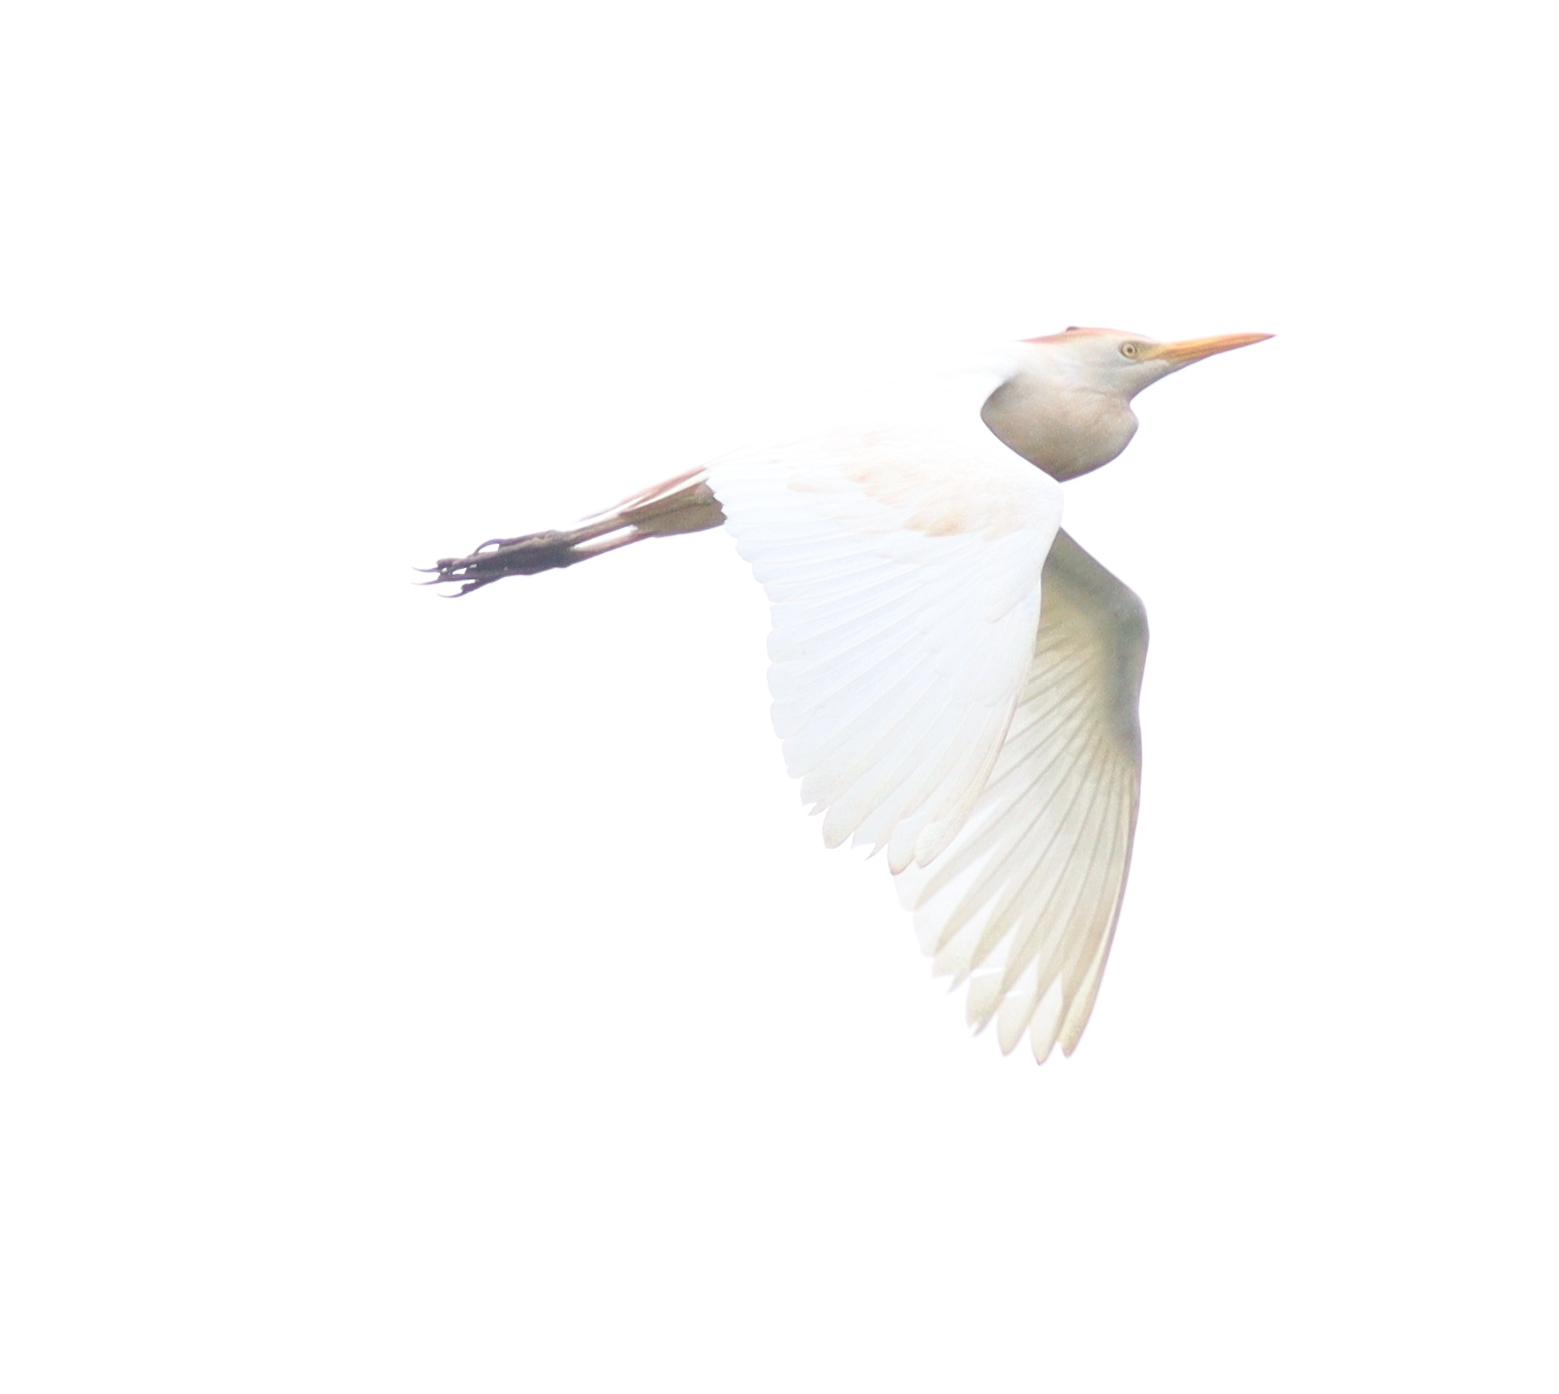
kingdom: Animalia
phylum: Chordata
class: Aves
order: Pelecaniformes
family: Ardeidae
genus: Bubulcus
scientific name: Bubulcus ibis
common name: Cattle egret
